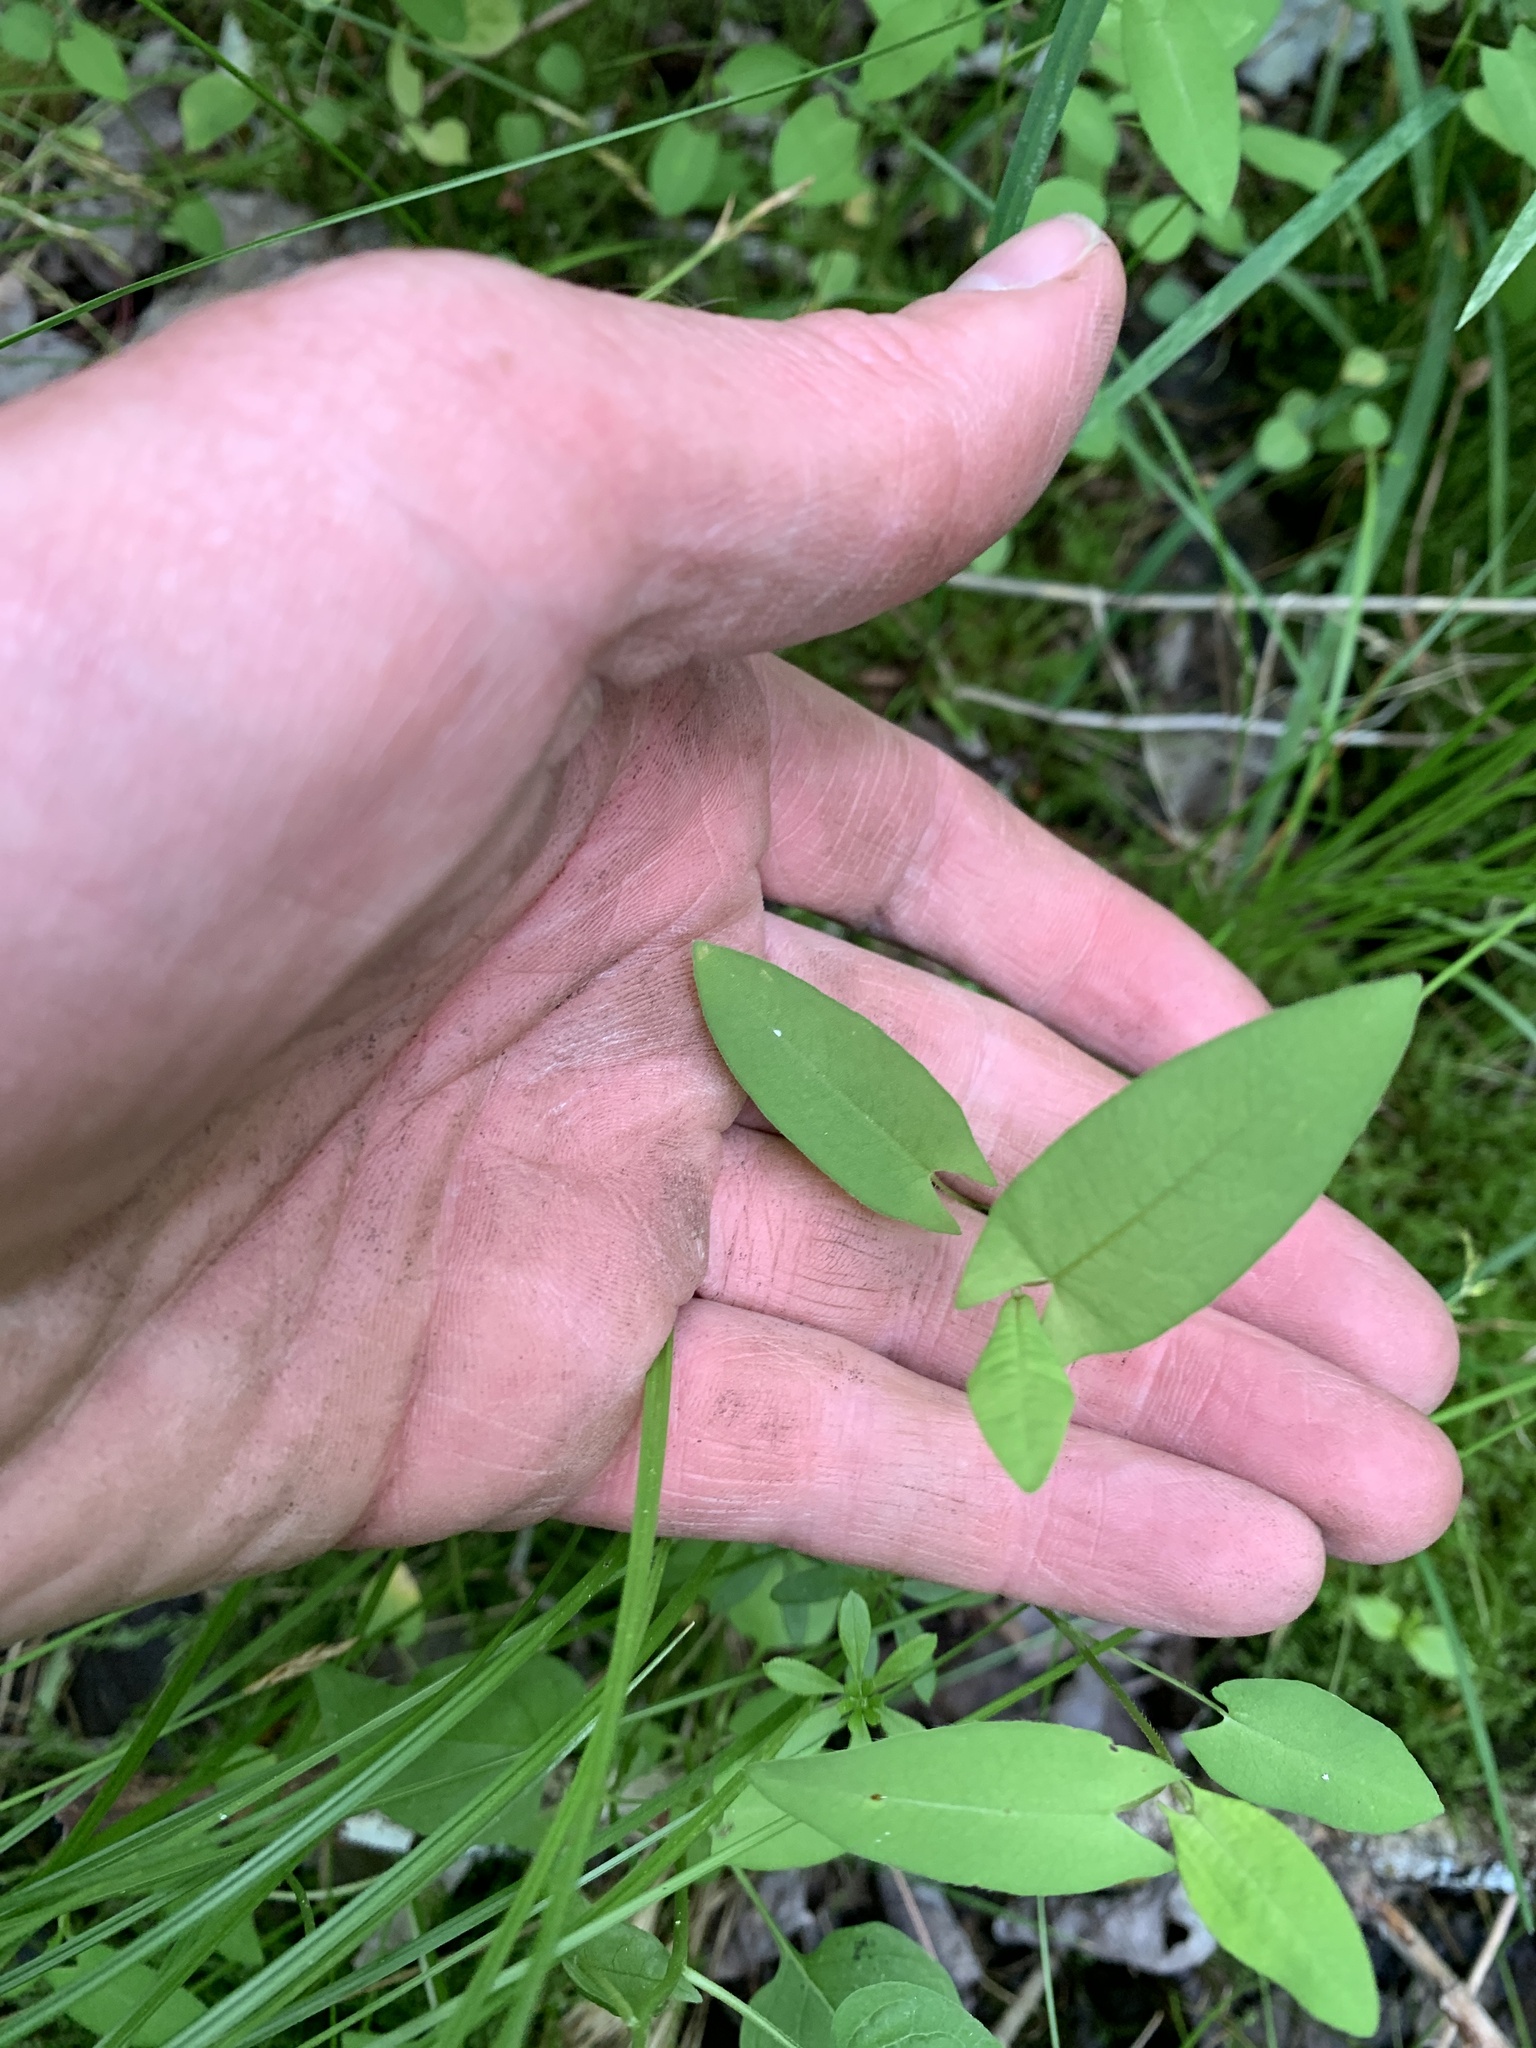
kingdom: Plantae
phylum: Tracheophyta
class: Magnoliopsida
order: Caryophyllales
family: Polygonaceae
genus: Persicaria
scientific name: Persicaria sagittata
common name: American tearthumb
